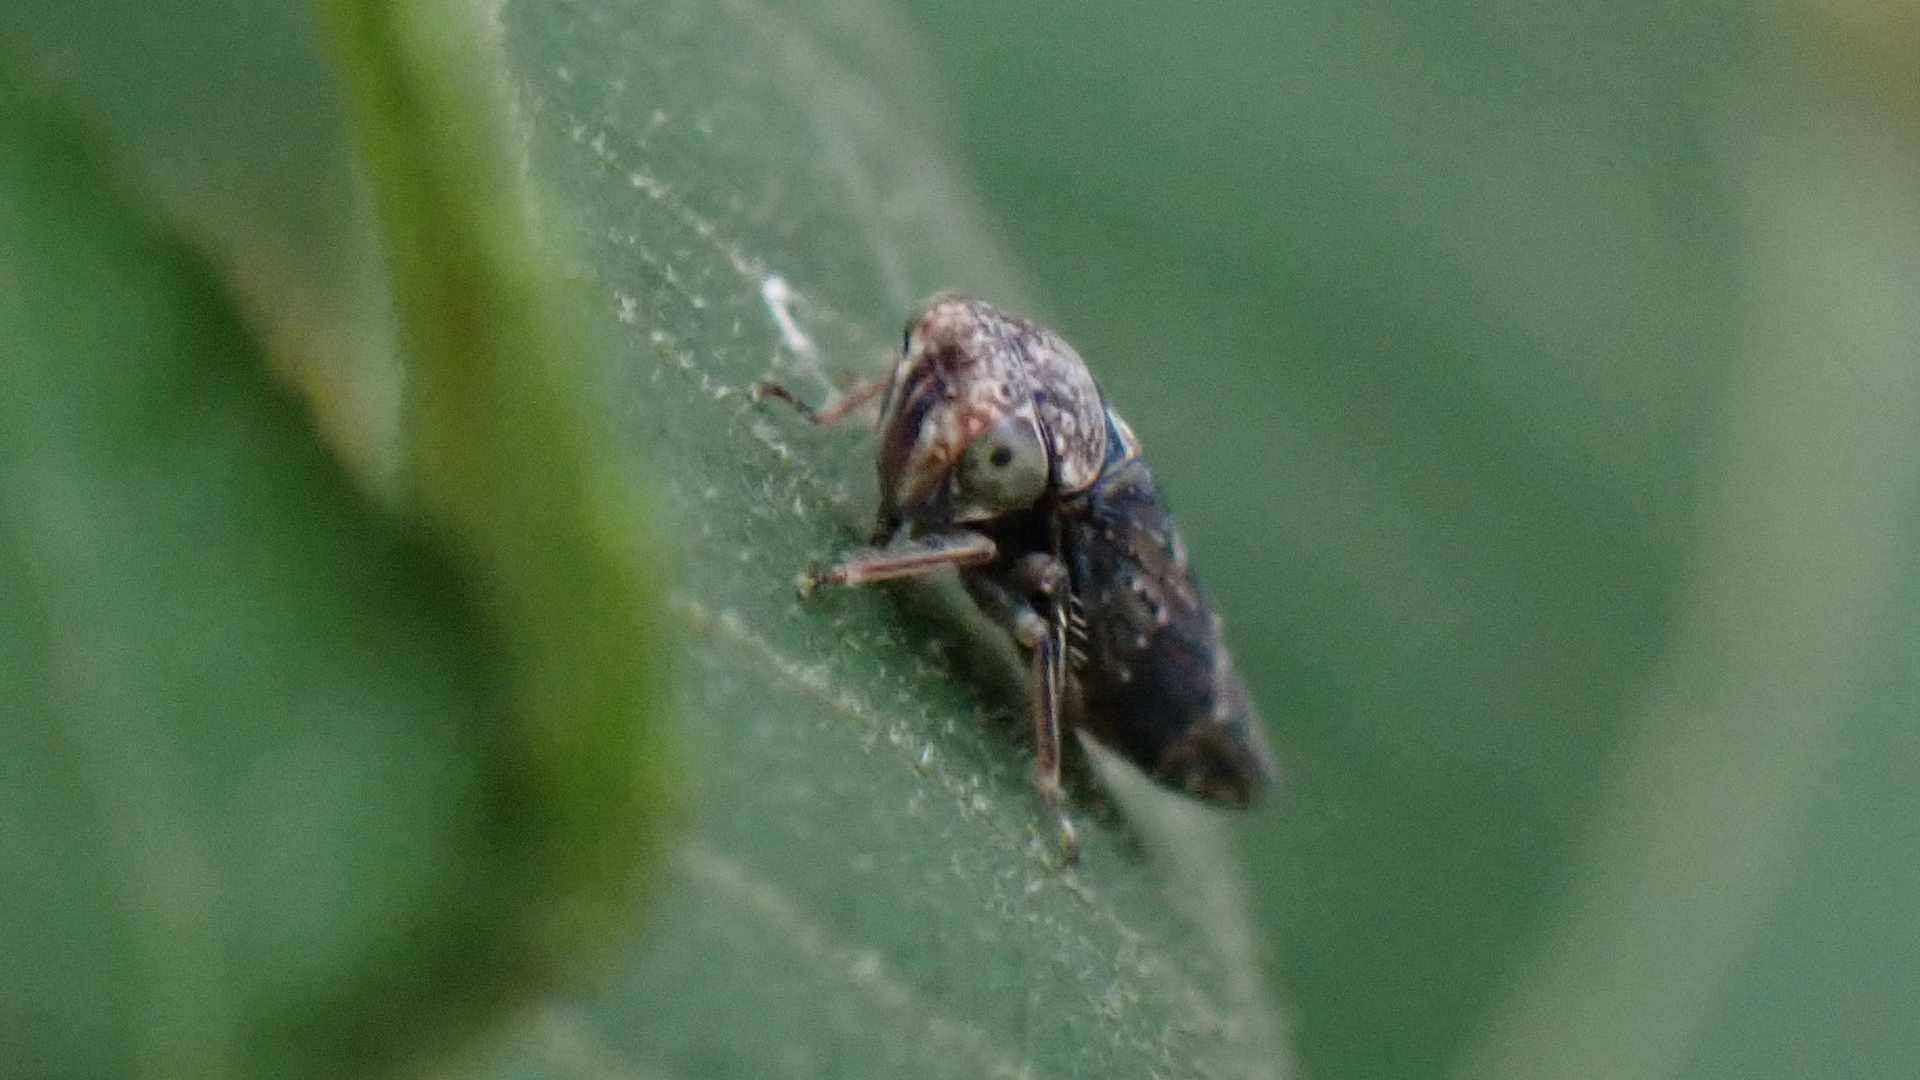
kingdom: Animalia
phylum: Arthropoda
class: Insecta
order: Hemiptera
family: Cicadellidae
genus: Acericerus
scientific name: Acericerus ribauti
